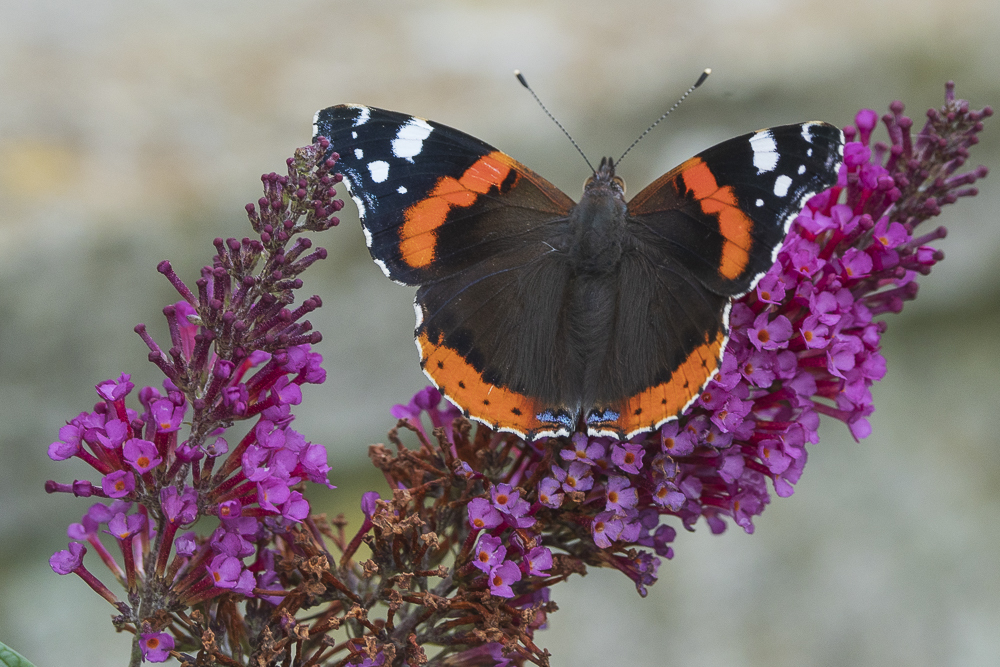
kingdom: Animalia
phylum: Arthropoda
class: Insecta
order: Lepidoptera
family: Nymphalidae
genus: Vanessa
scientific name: Vanessa atalanta
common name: Red admiral
